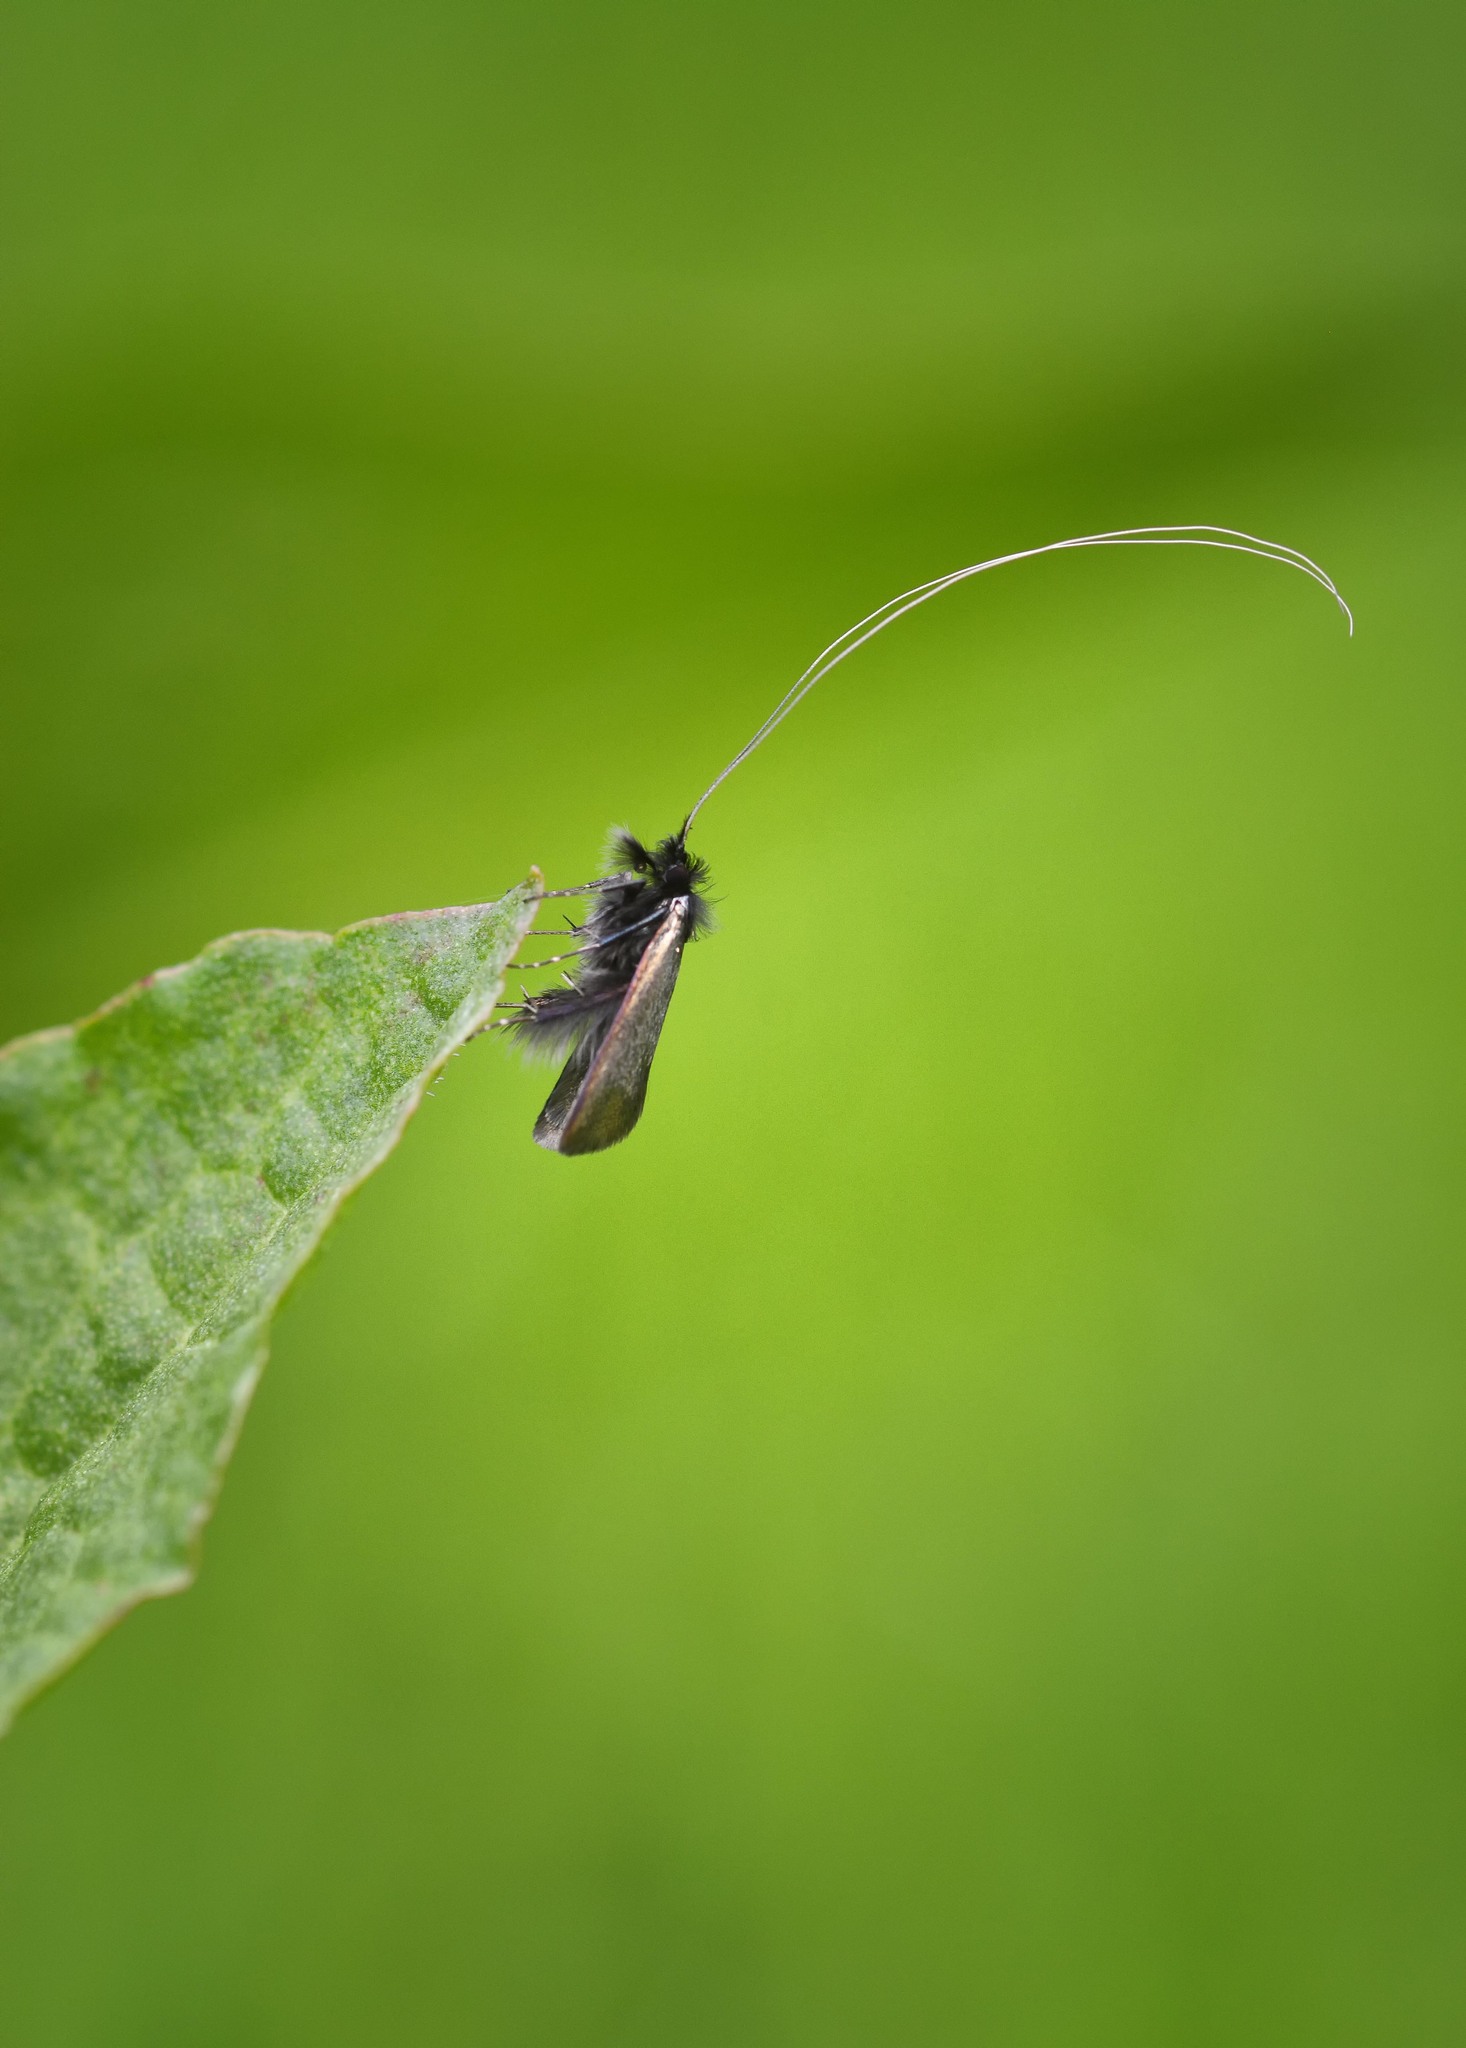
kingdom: Animalia
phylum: Arthropoda
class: Insecta
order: Lepidoptera
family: Adelidae
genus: Adela
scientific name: Adela viridella
